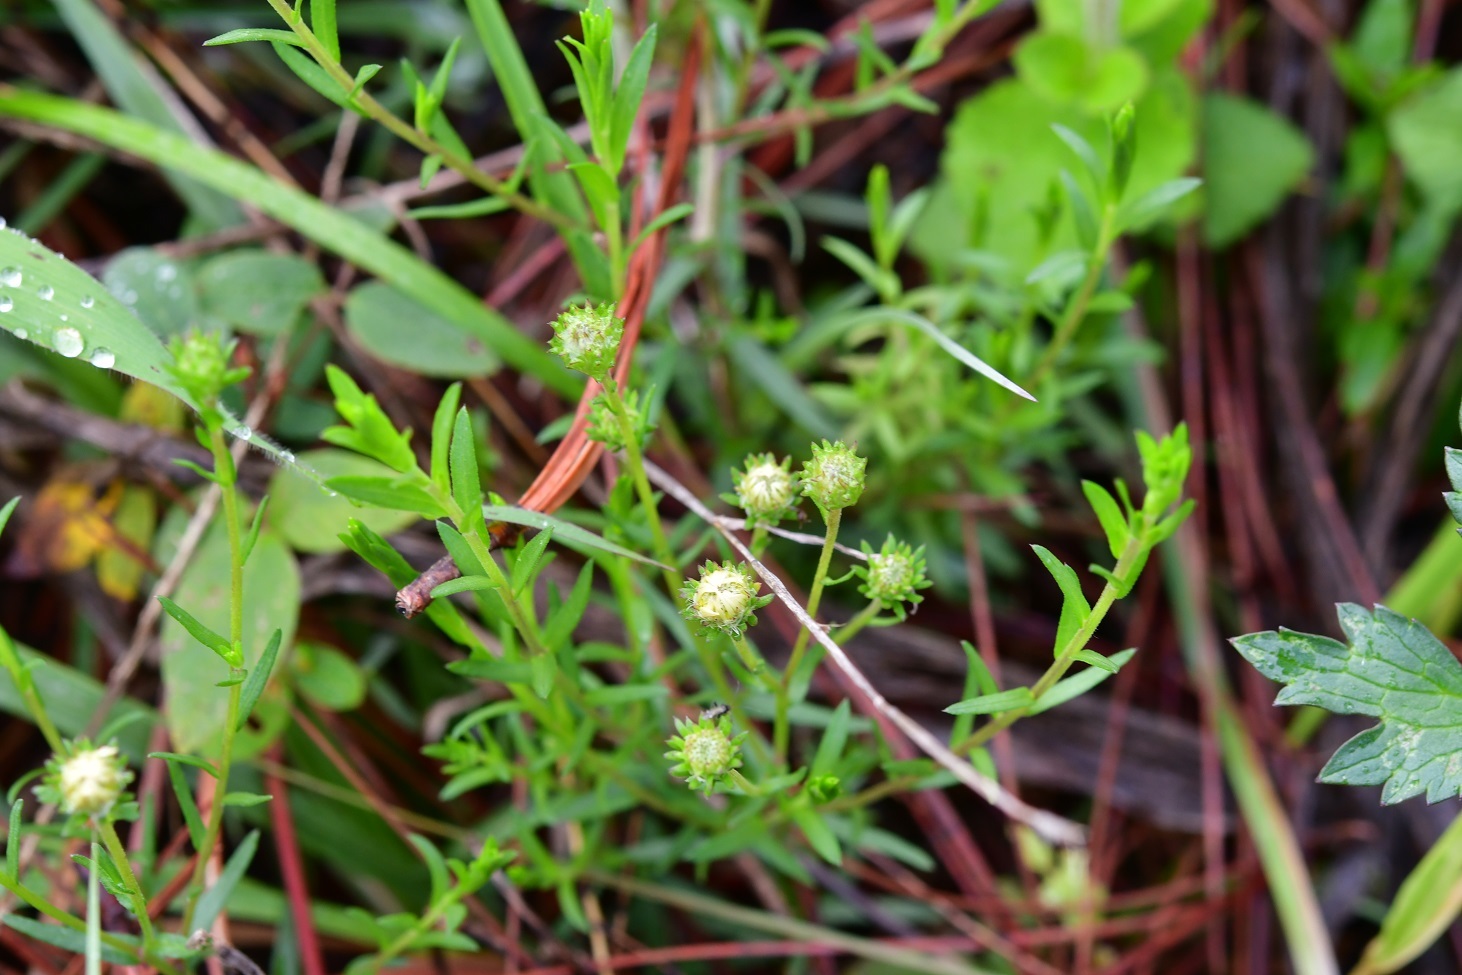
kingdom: Plantae
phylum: Tracheophyta
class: Magnoliopsida
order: Asterales
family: Asteraceae
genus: Symphyotrichum
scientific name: Symphyotrichum bullatum
